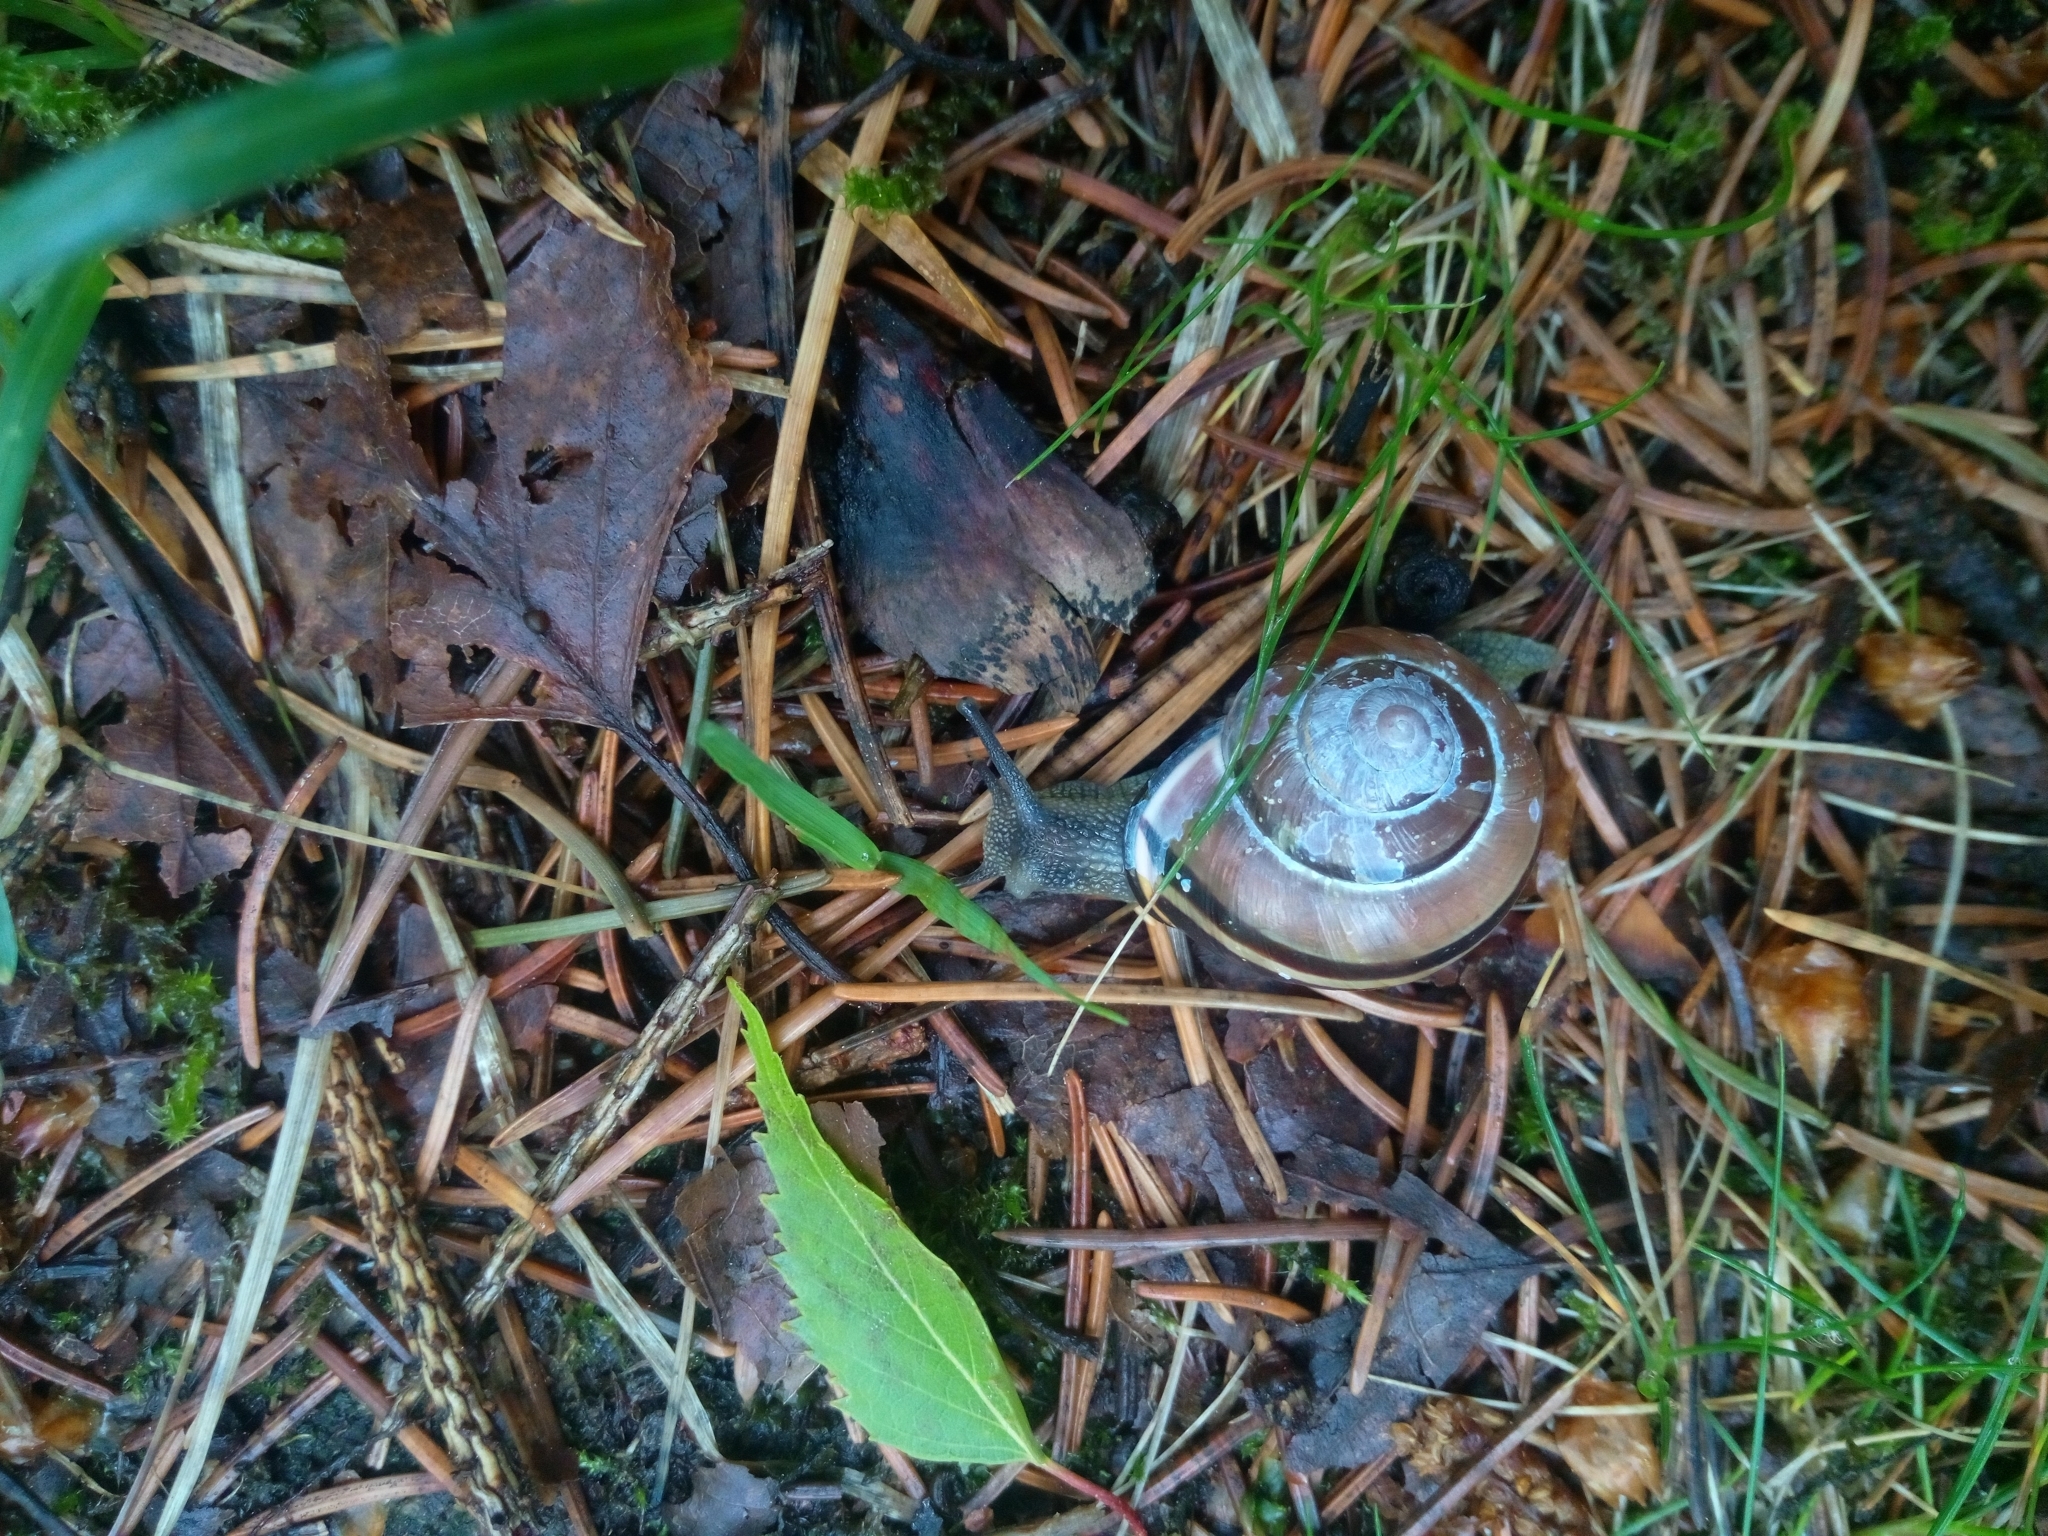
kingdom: Animalia
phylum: Mollusca
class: Gastropoda
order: Stylommatophora
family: Helicidae
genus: Cepaea
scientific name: Cepaea nemoralis
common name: Grovesnail
